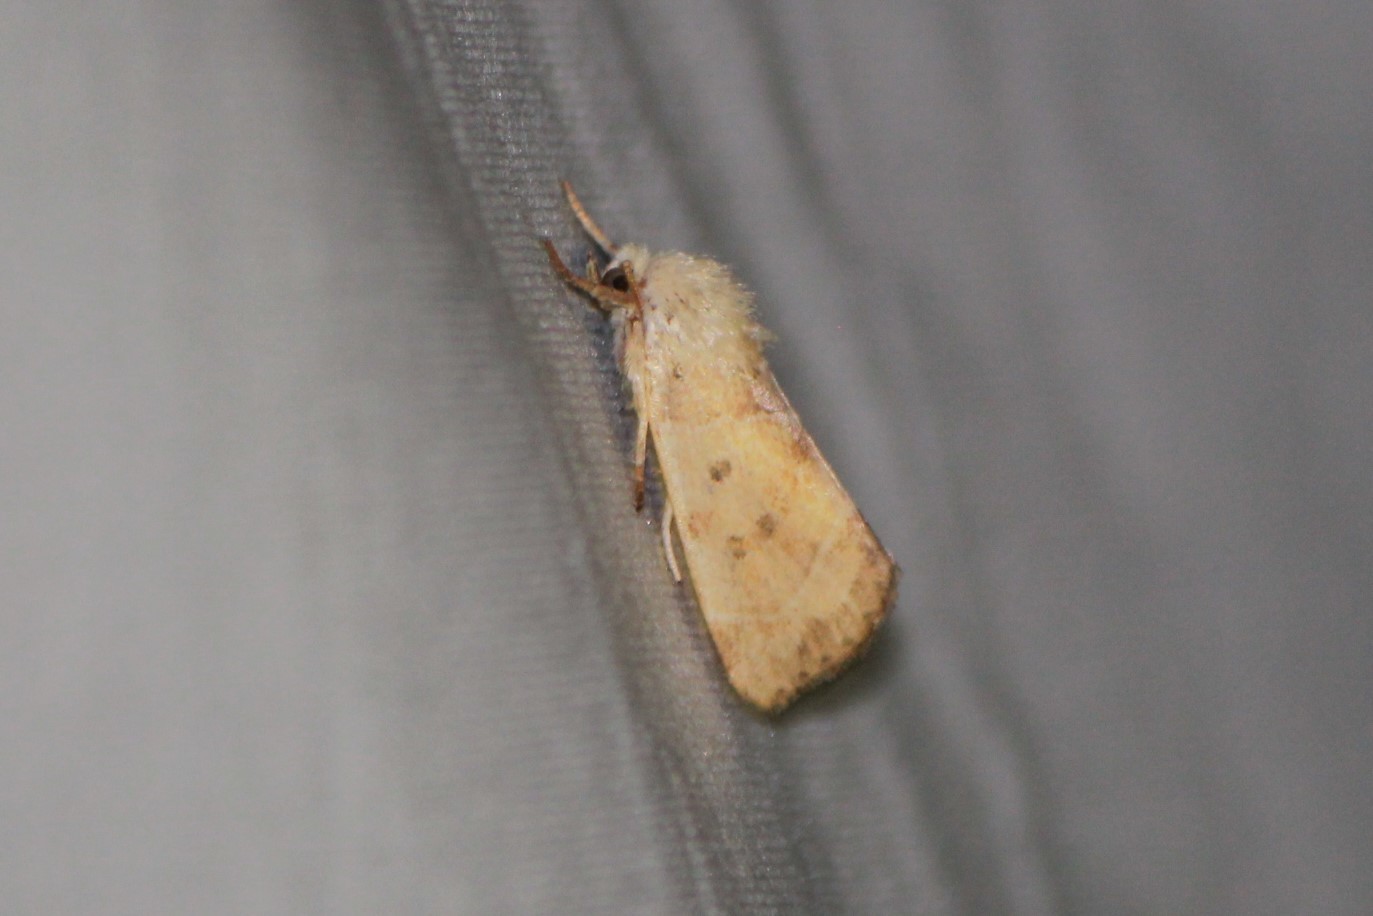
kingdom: Animalia
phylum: Arthropoda
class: Insecta
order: Lepidoptera
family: Noctuidae
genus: Cosmia
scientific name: Cosmia calami
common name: American dun-bar moth
